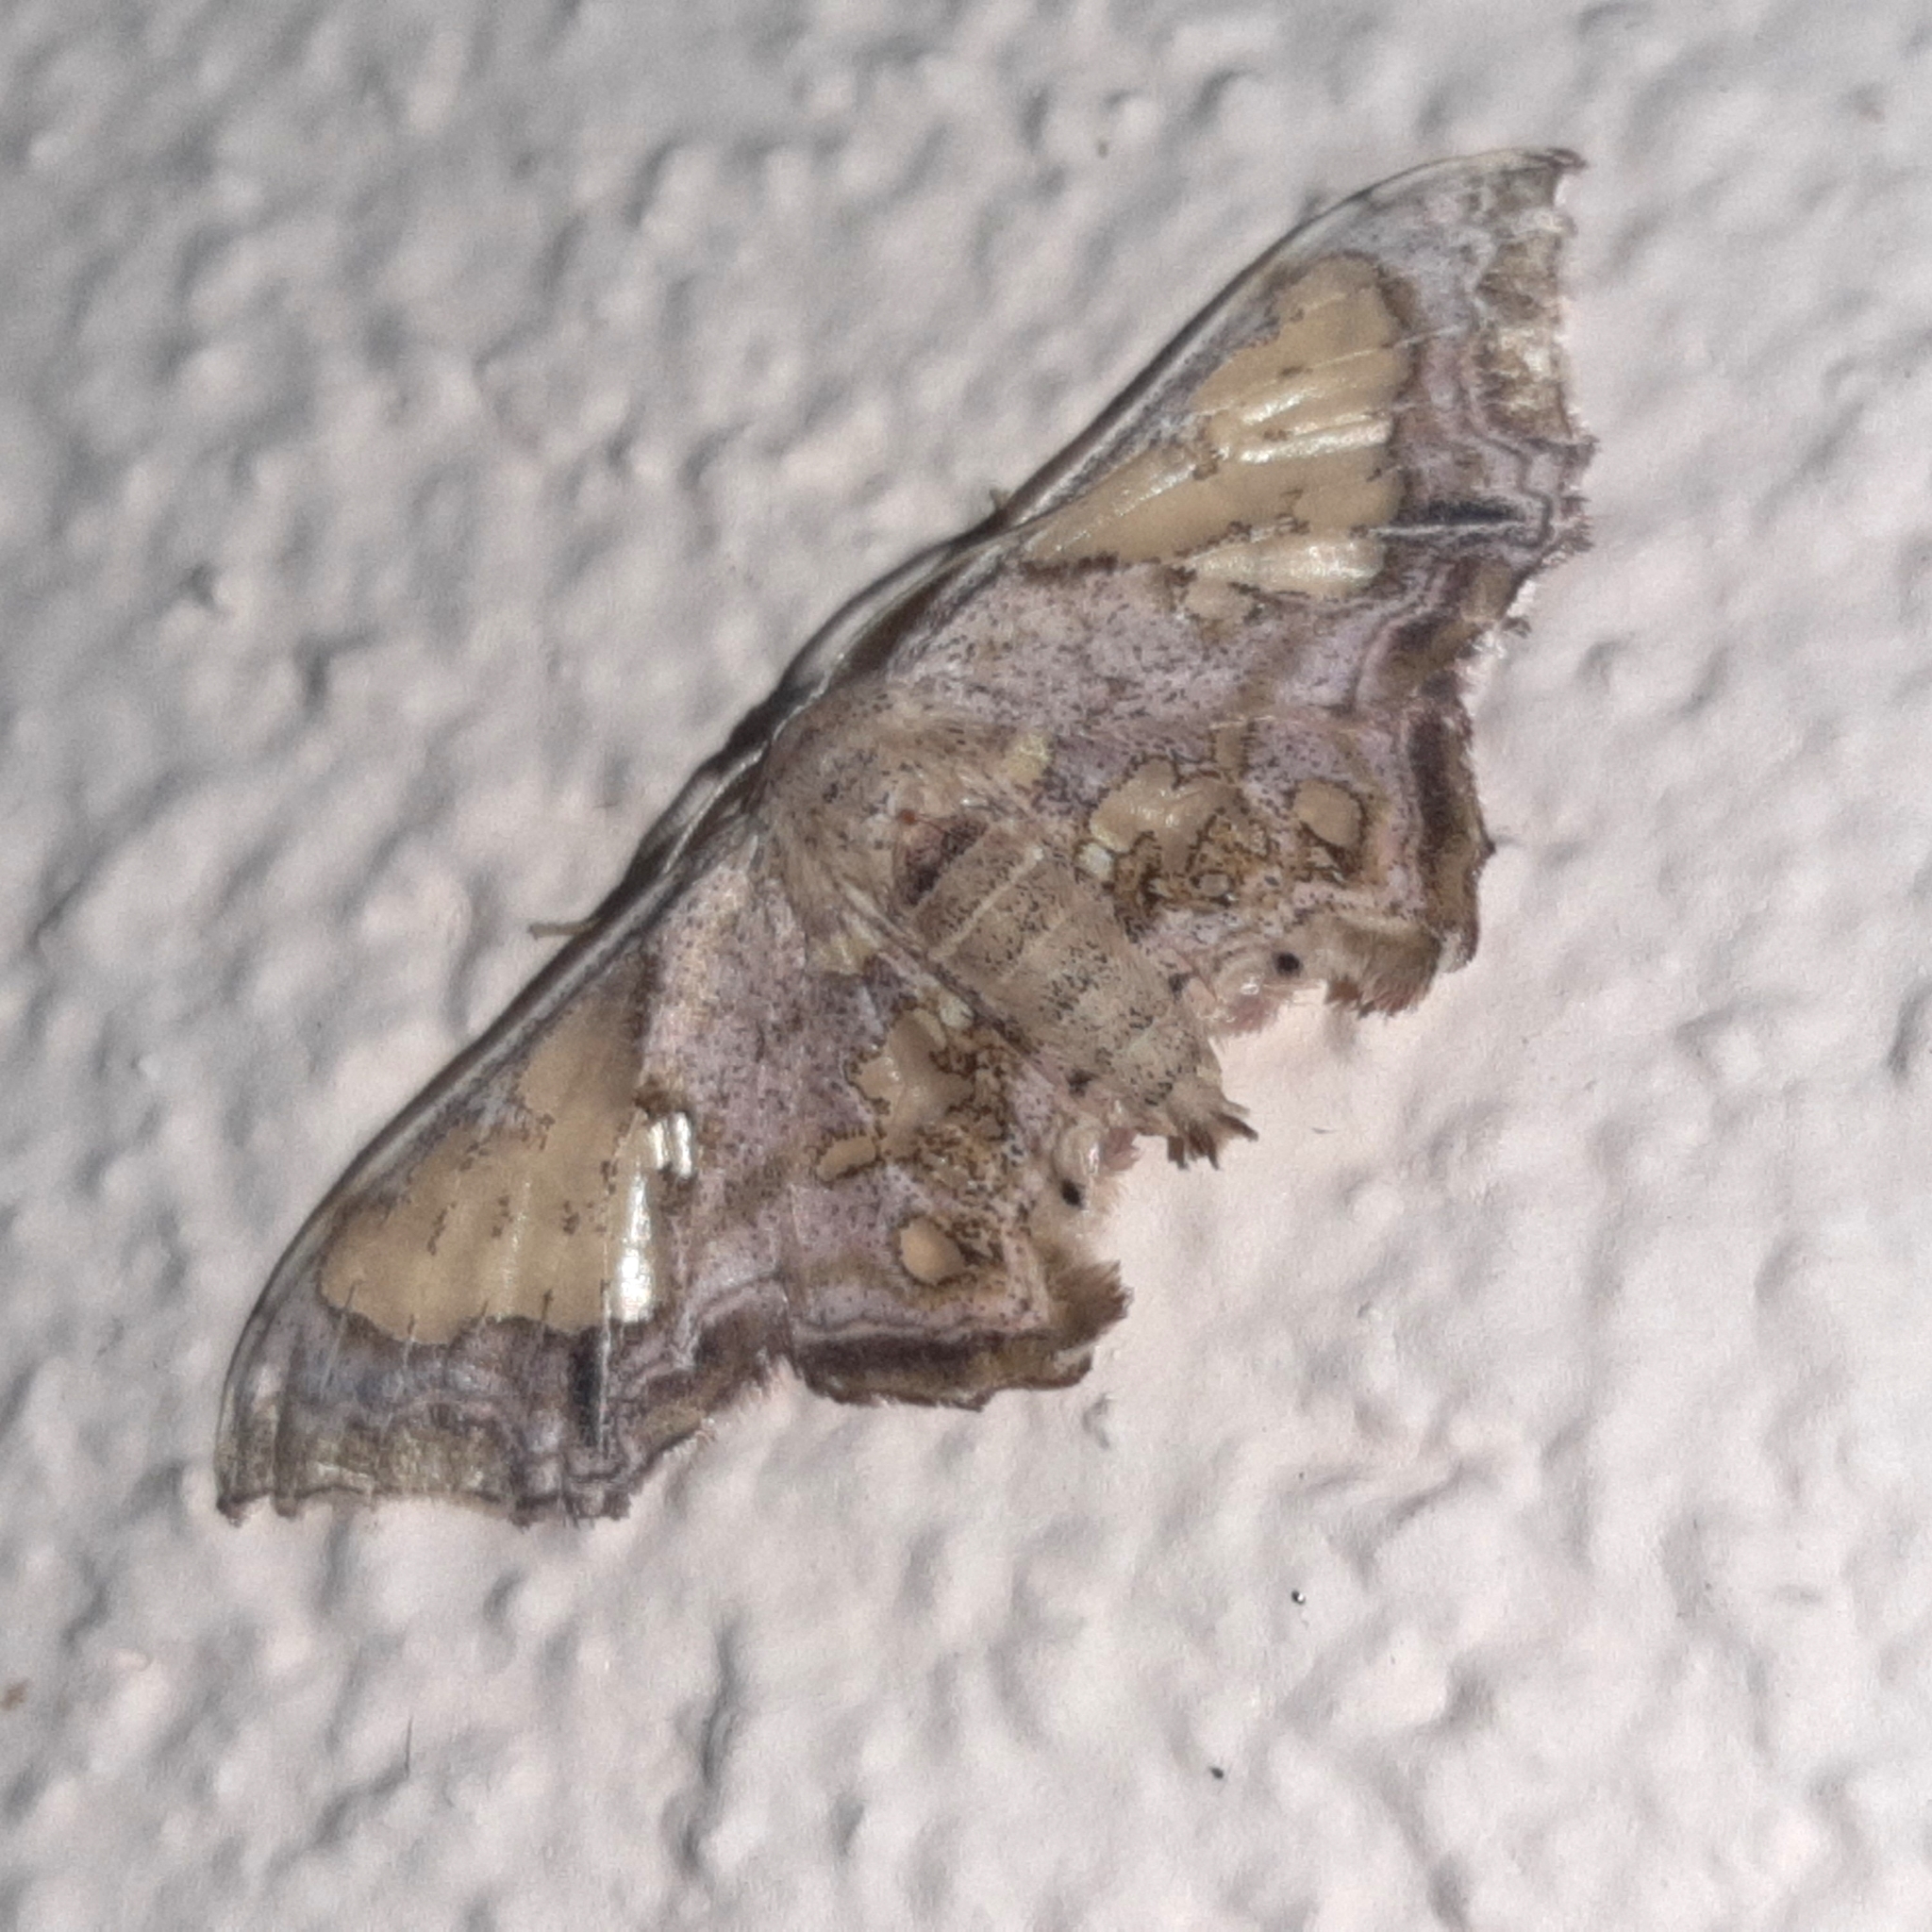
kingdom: Animalia
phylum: Arthropoda
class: Insecta
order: Lepidoptera
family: Geometridae
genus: Pseudasellodes
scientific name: Pseudasellodes fenestraria
